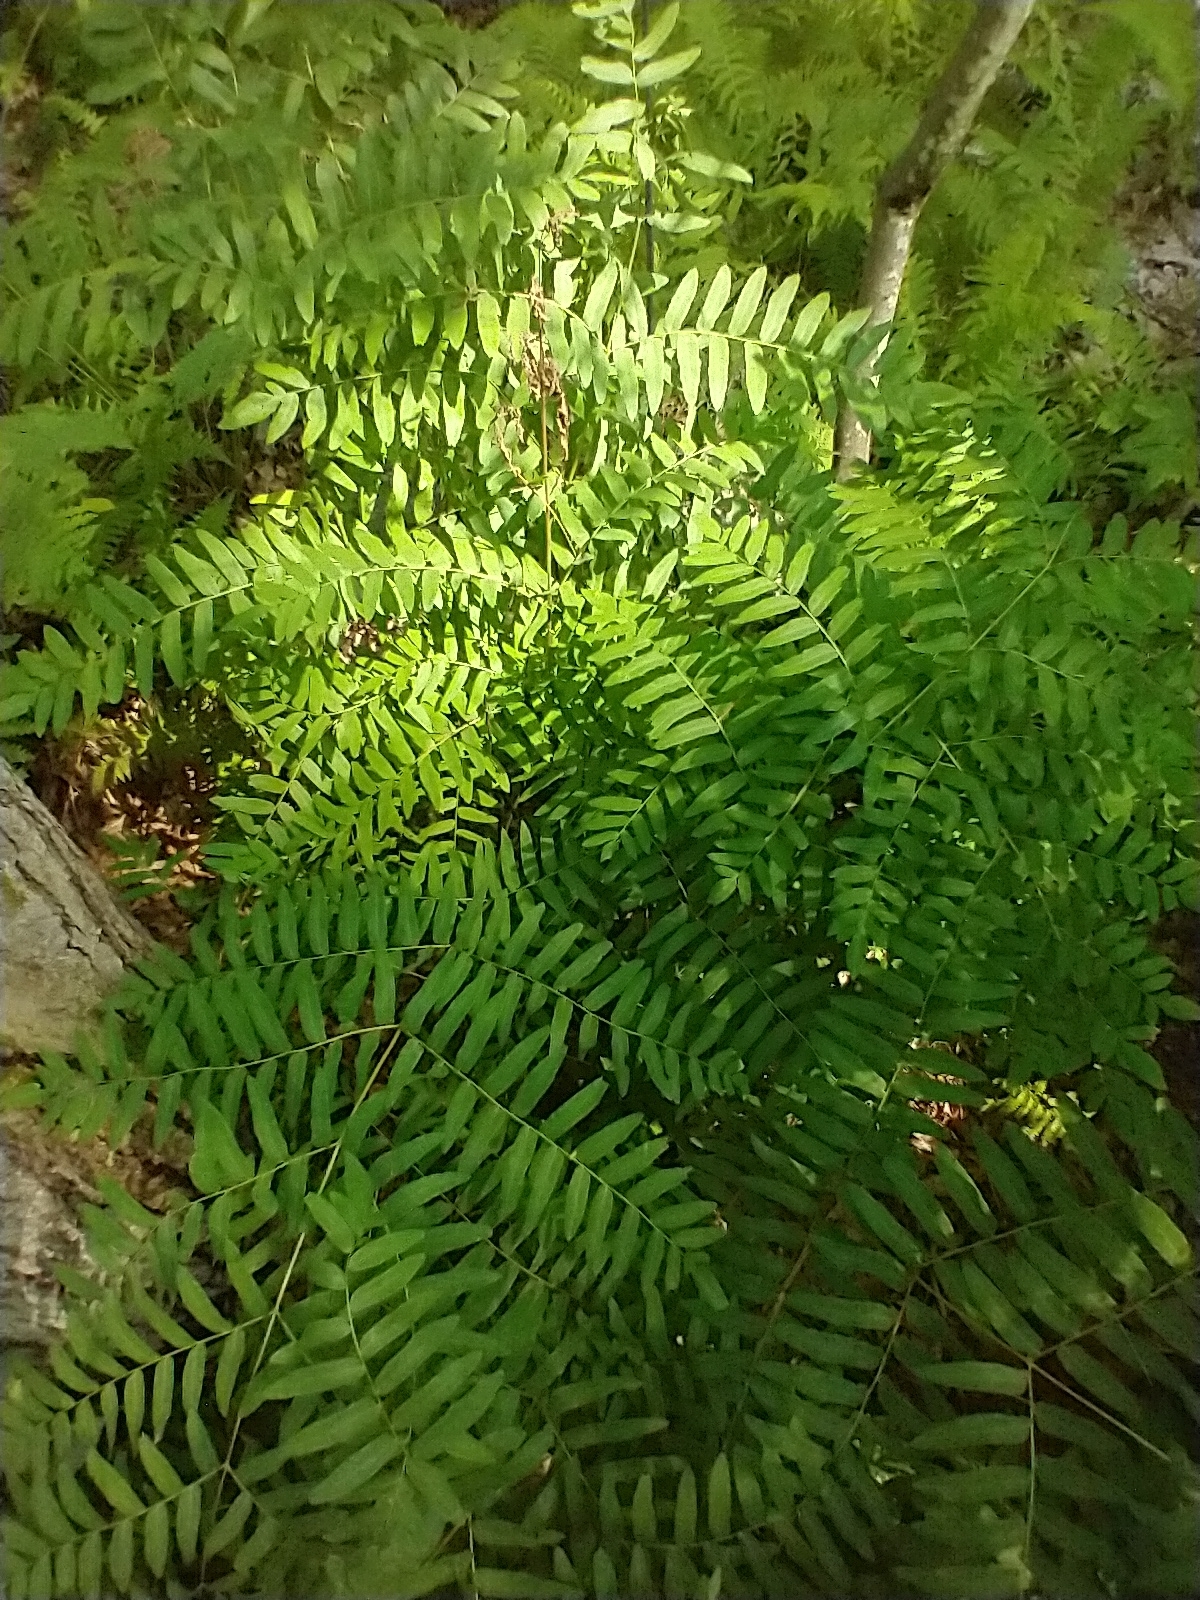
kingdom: Plantae
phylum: Tracheophyta
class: Polypodiopsida
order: Osmundales
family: Osmundaceae
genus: Osmunda
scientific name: Osmunda spectabilis
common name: American royal fern
